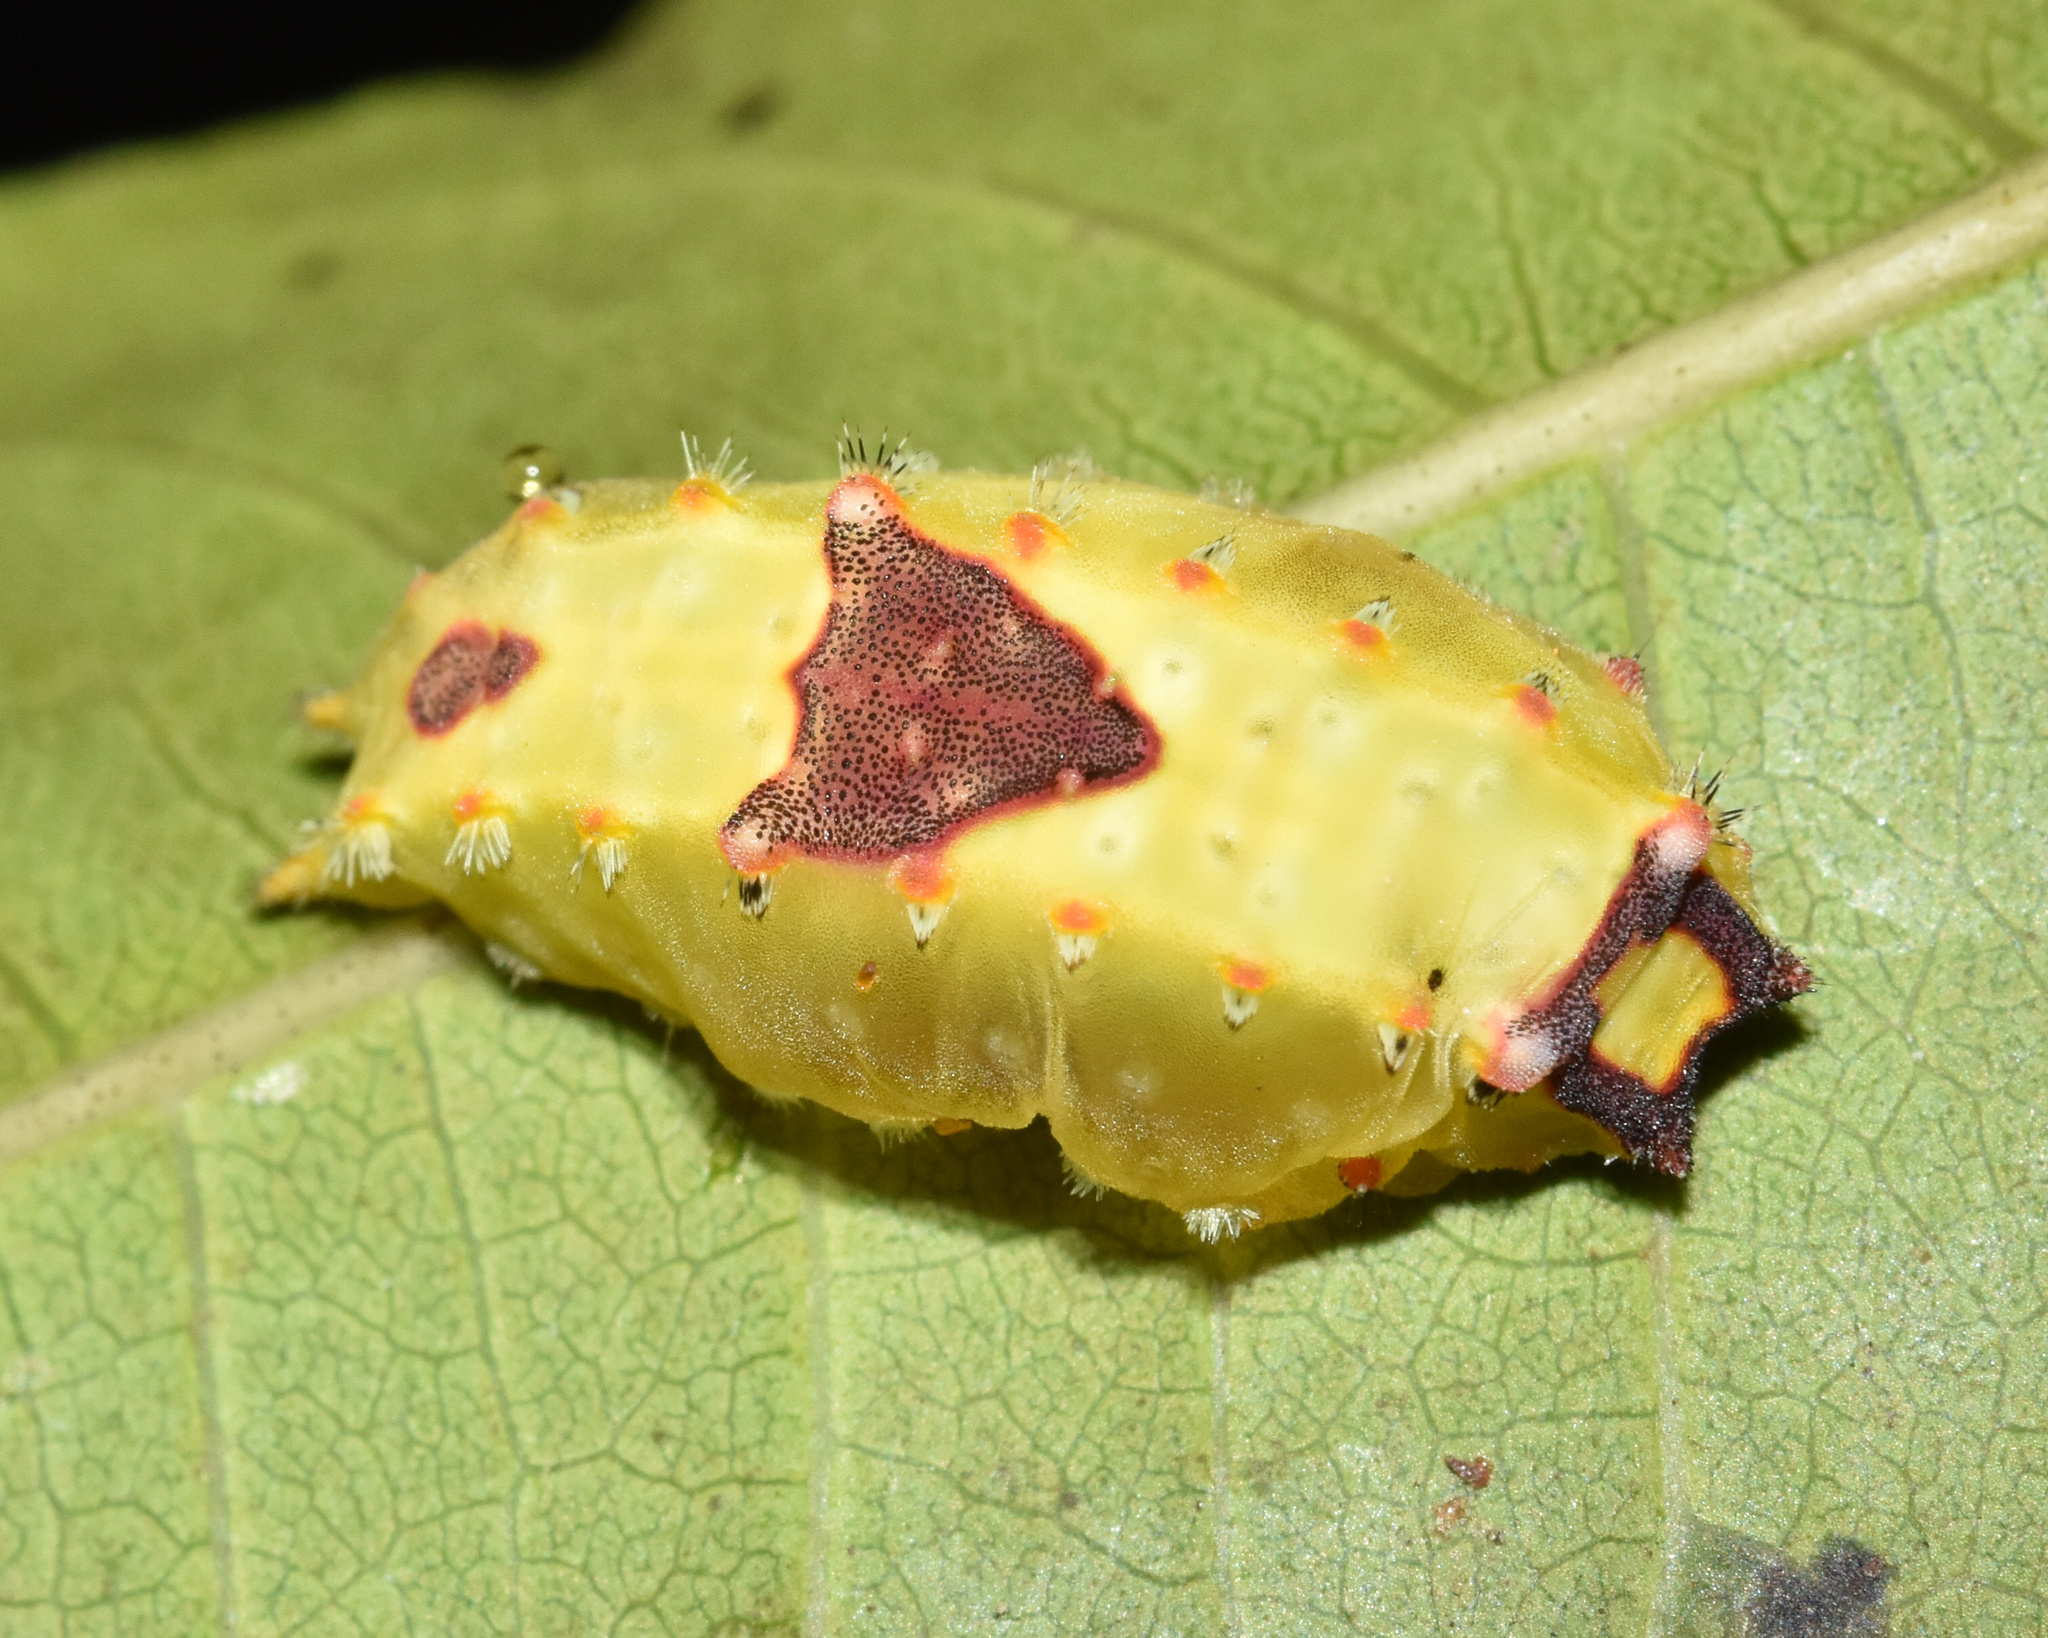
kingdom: Animalia
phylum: Arthropoda
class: Insecta
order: Lepidoptera
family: Limacodidae
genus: Micraphe
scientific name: Micraphe lateritia
